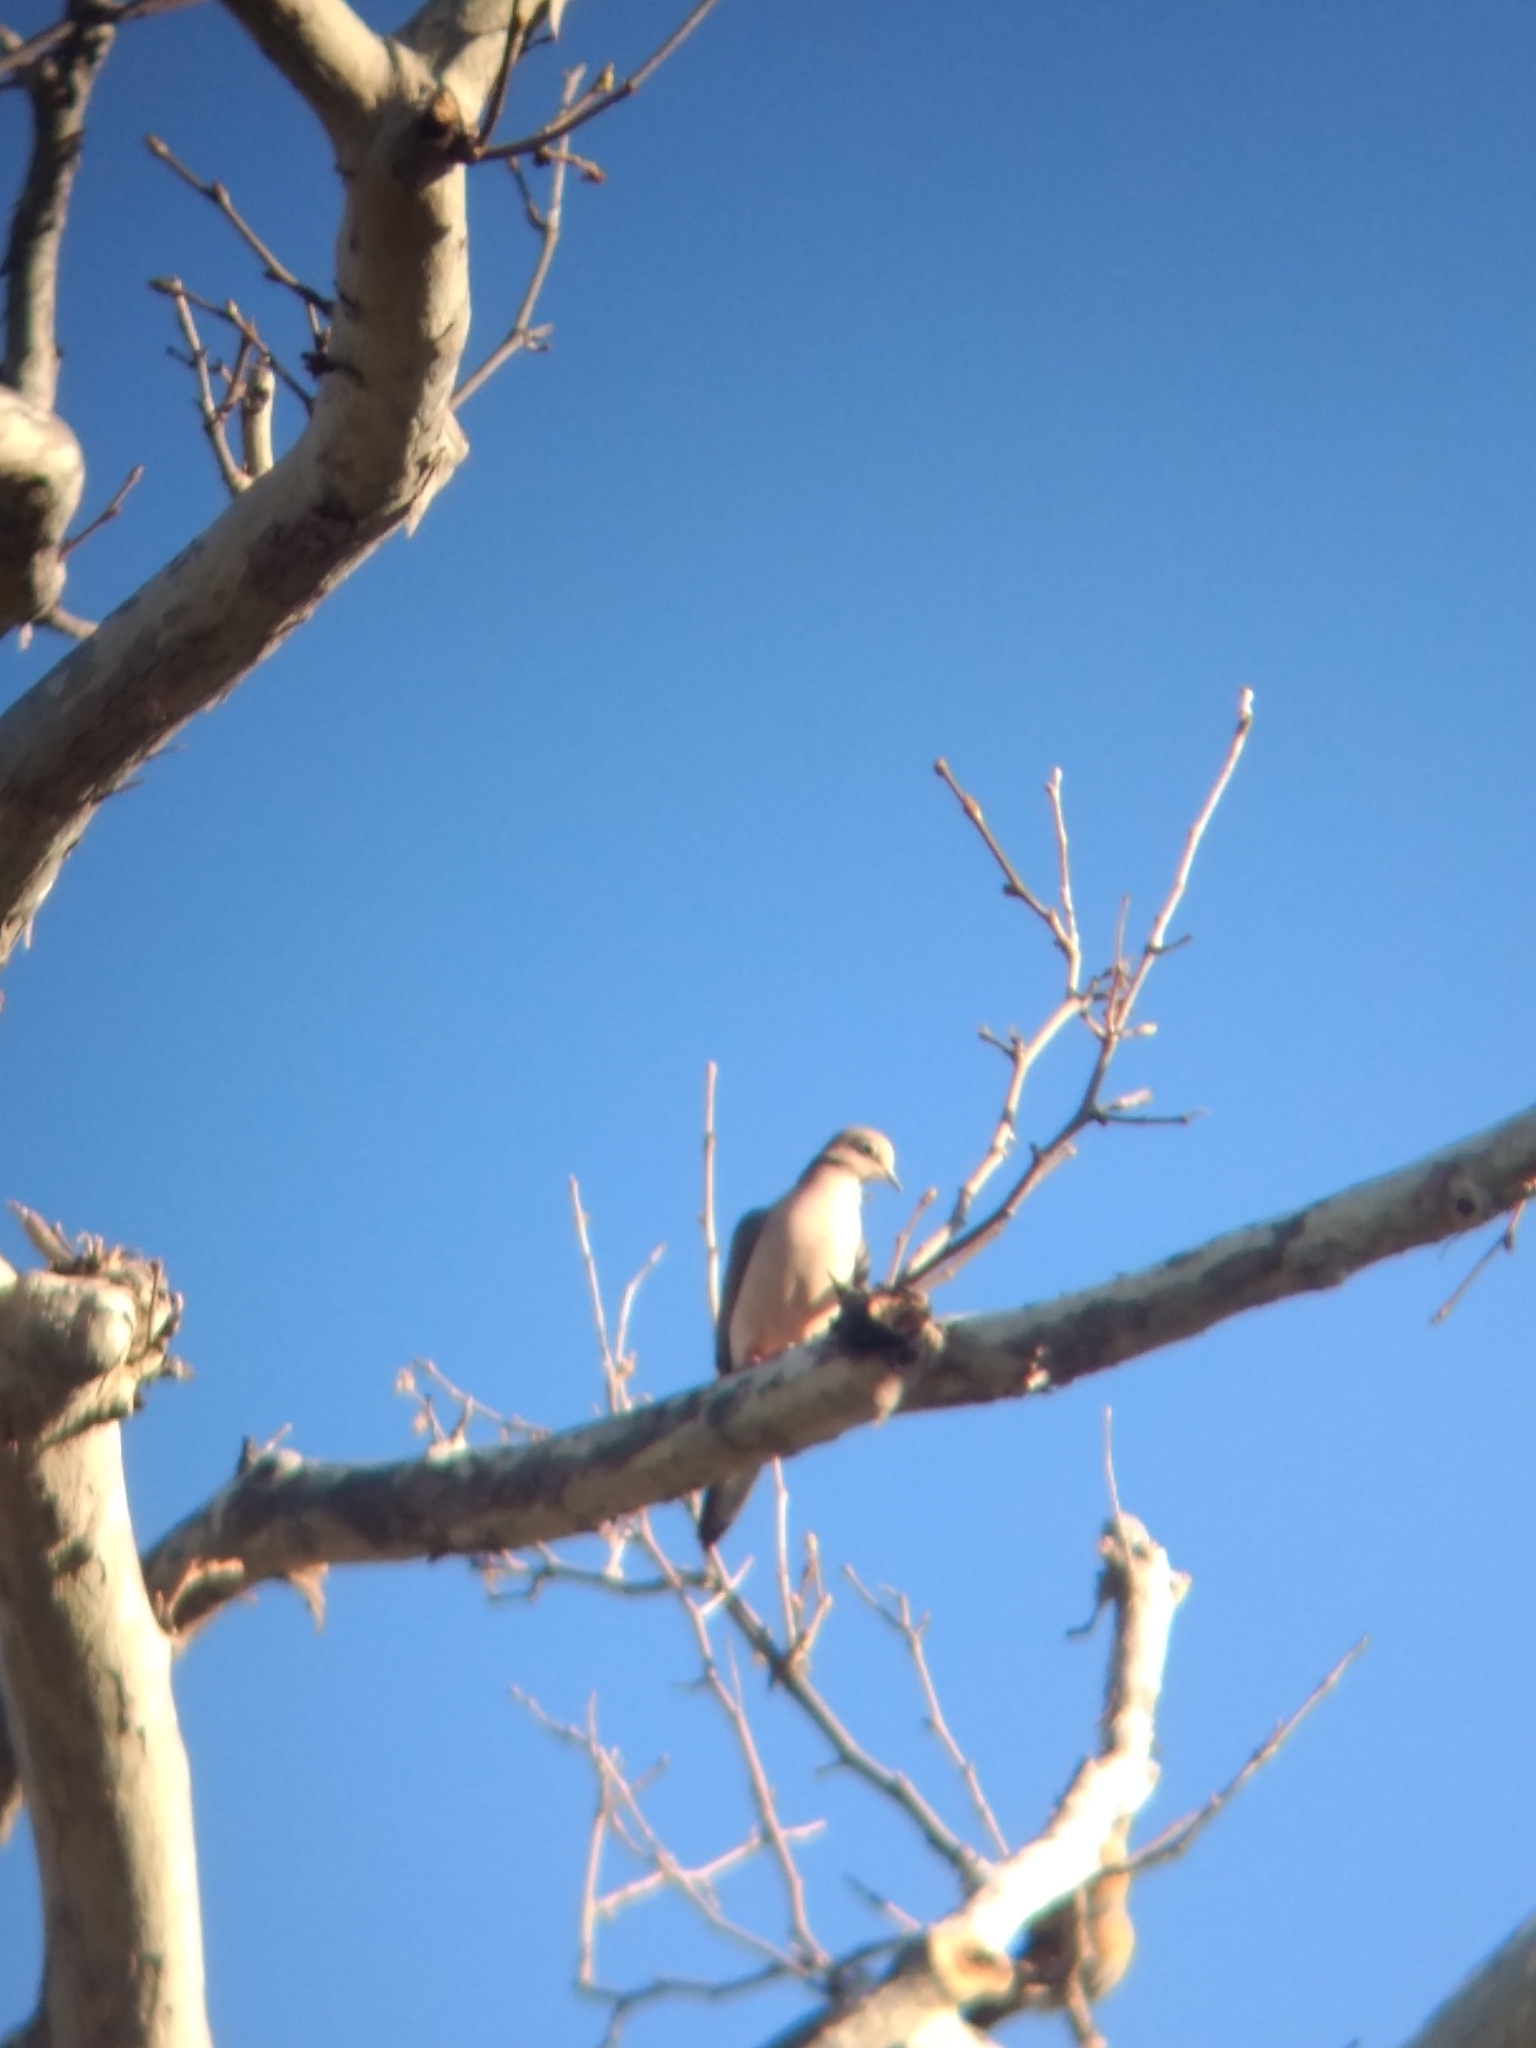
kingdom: Animalia
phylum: Chordata
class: Aves
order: Columbiformes
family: Columbidae
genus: Zenaida
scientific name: Zenaida macroura
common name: Mourning dove
